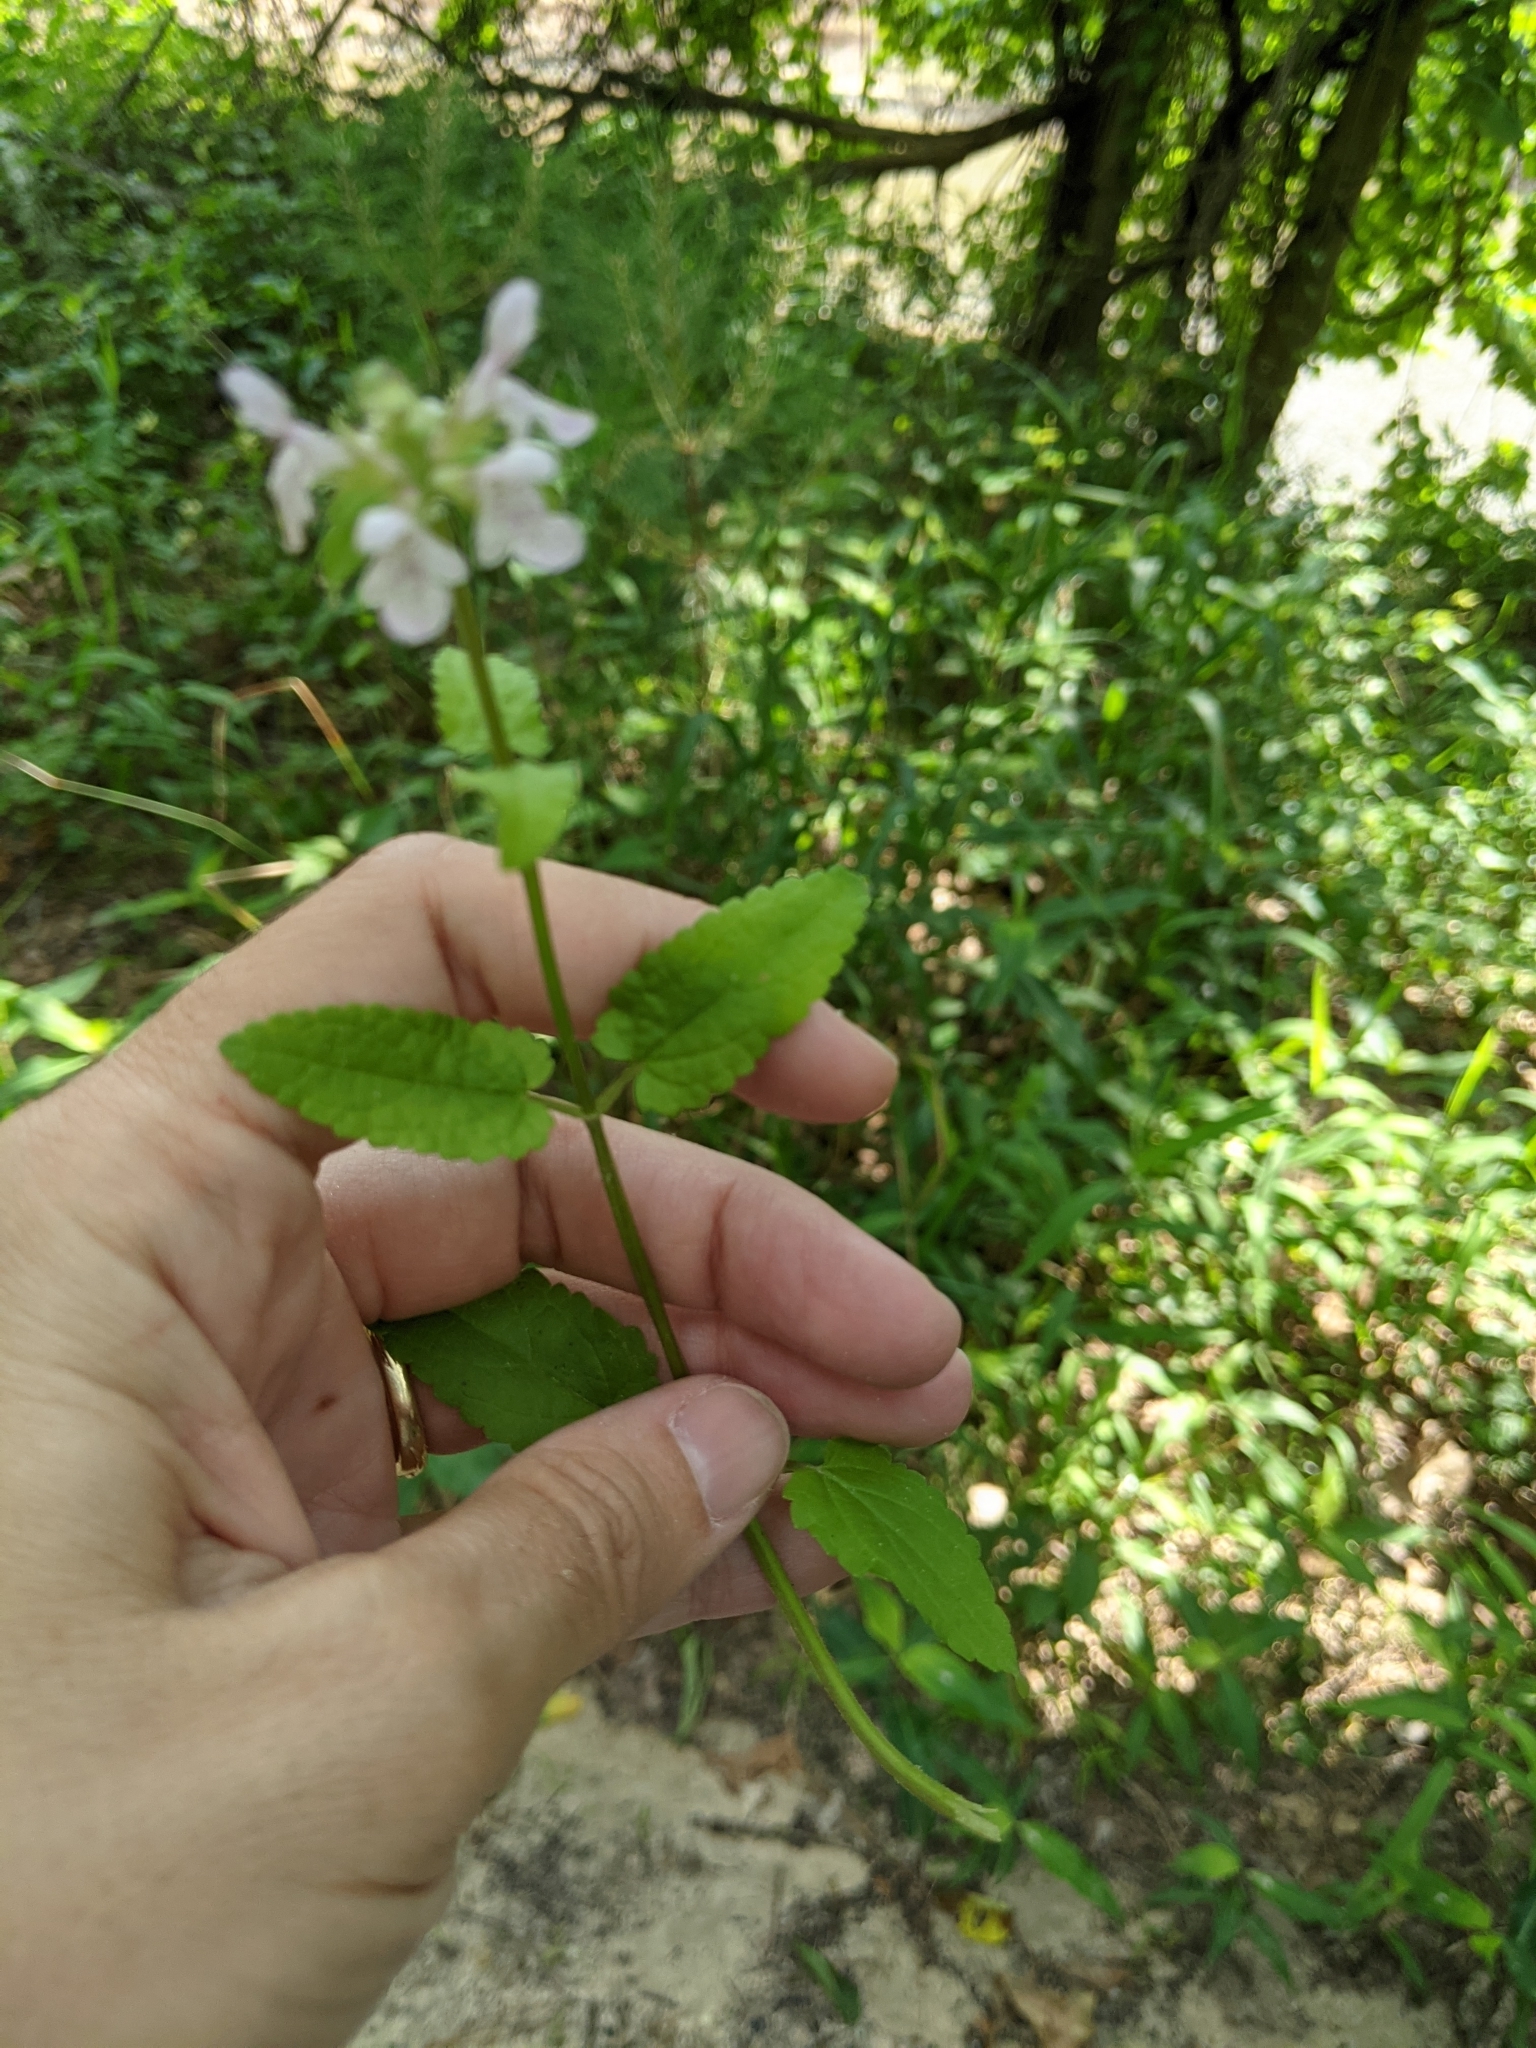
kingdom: Plantae
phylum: Tracheophyta
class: Magnoliopsida
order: Lamiales
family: Lamiaceae
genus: Stachys
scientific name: Stachys floridana
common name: Florida betony
